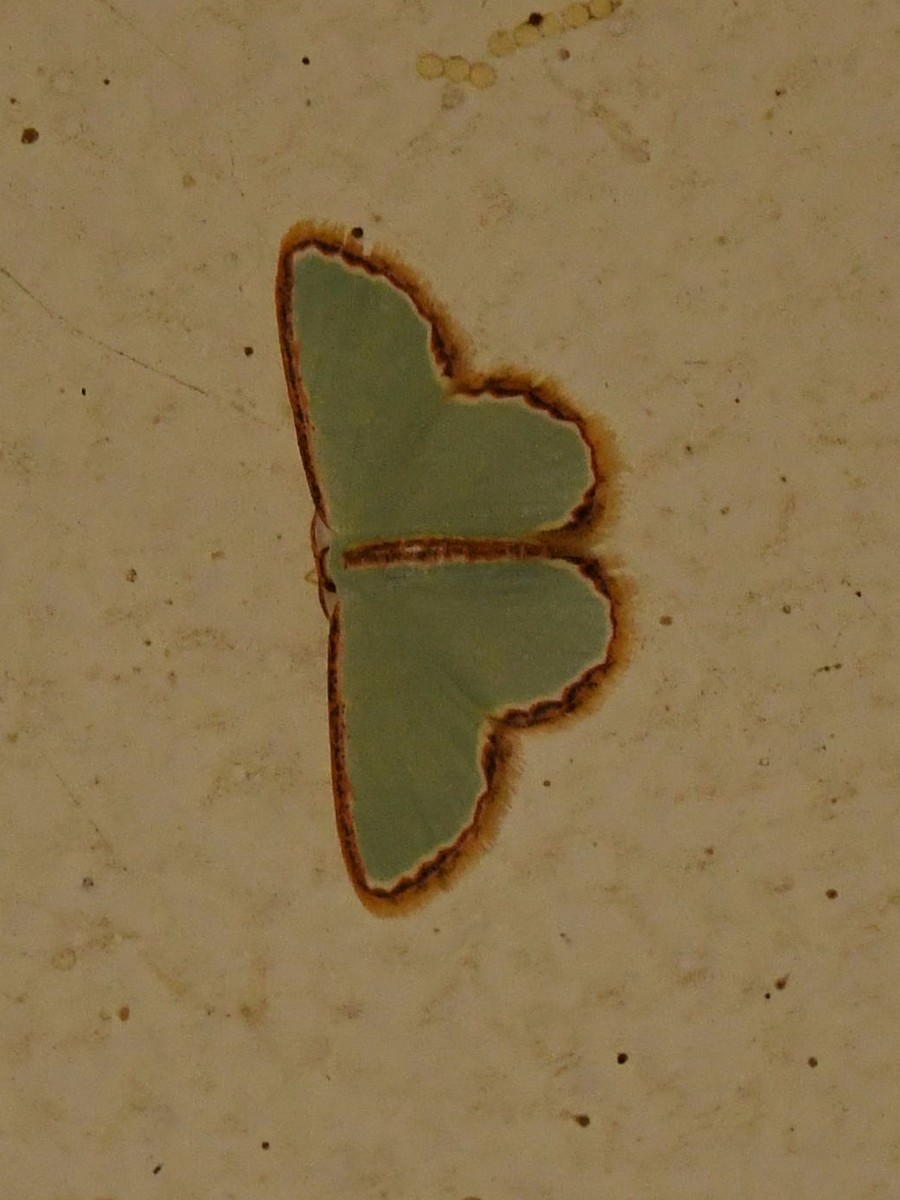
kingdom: Animalia
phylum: Arthropoda
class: Insecta
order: Lepidoptera
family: Geometridae
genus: Comostola
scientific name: Comostola pyrrhogona
